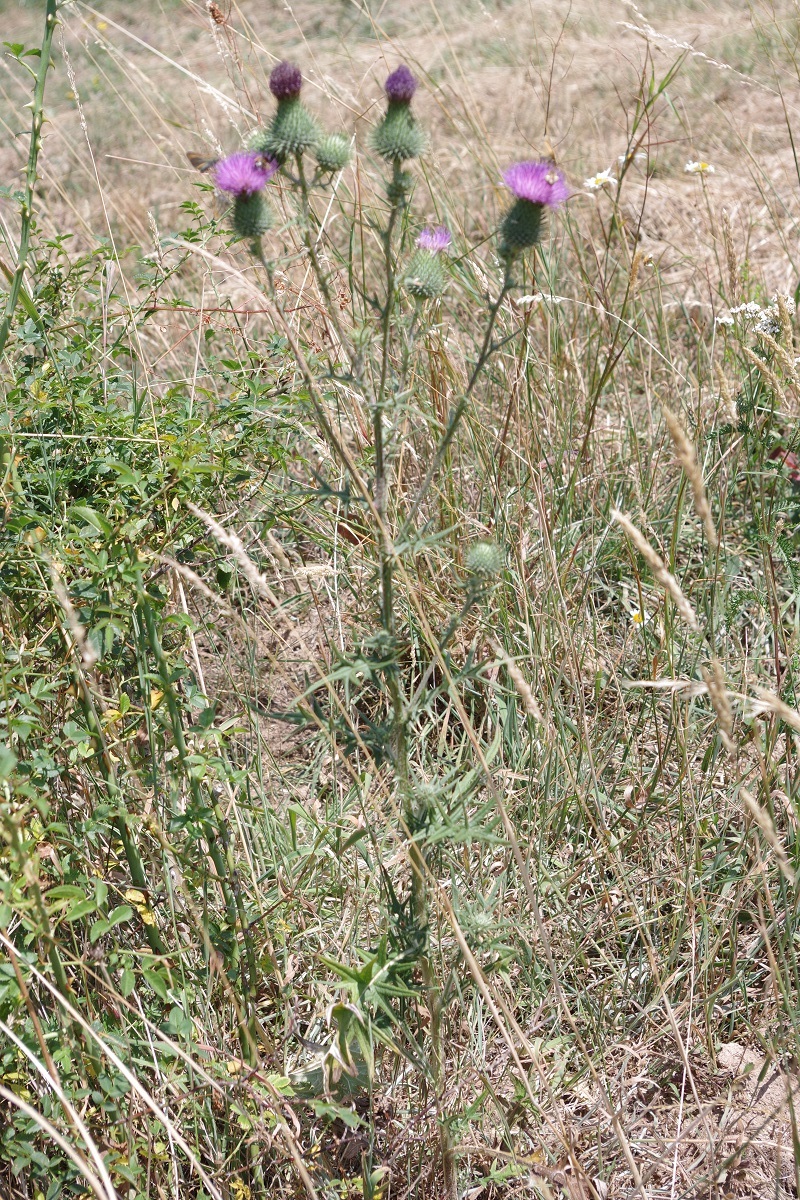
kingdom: Plantae
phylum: Tracheophyta
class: Magnoliopsida
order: Asterales
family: Asteraceae
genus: Cirsium
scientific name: Cirsium vulgare
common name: Bull thistle
